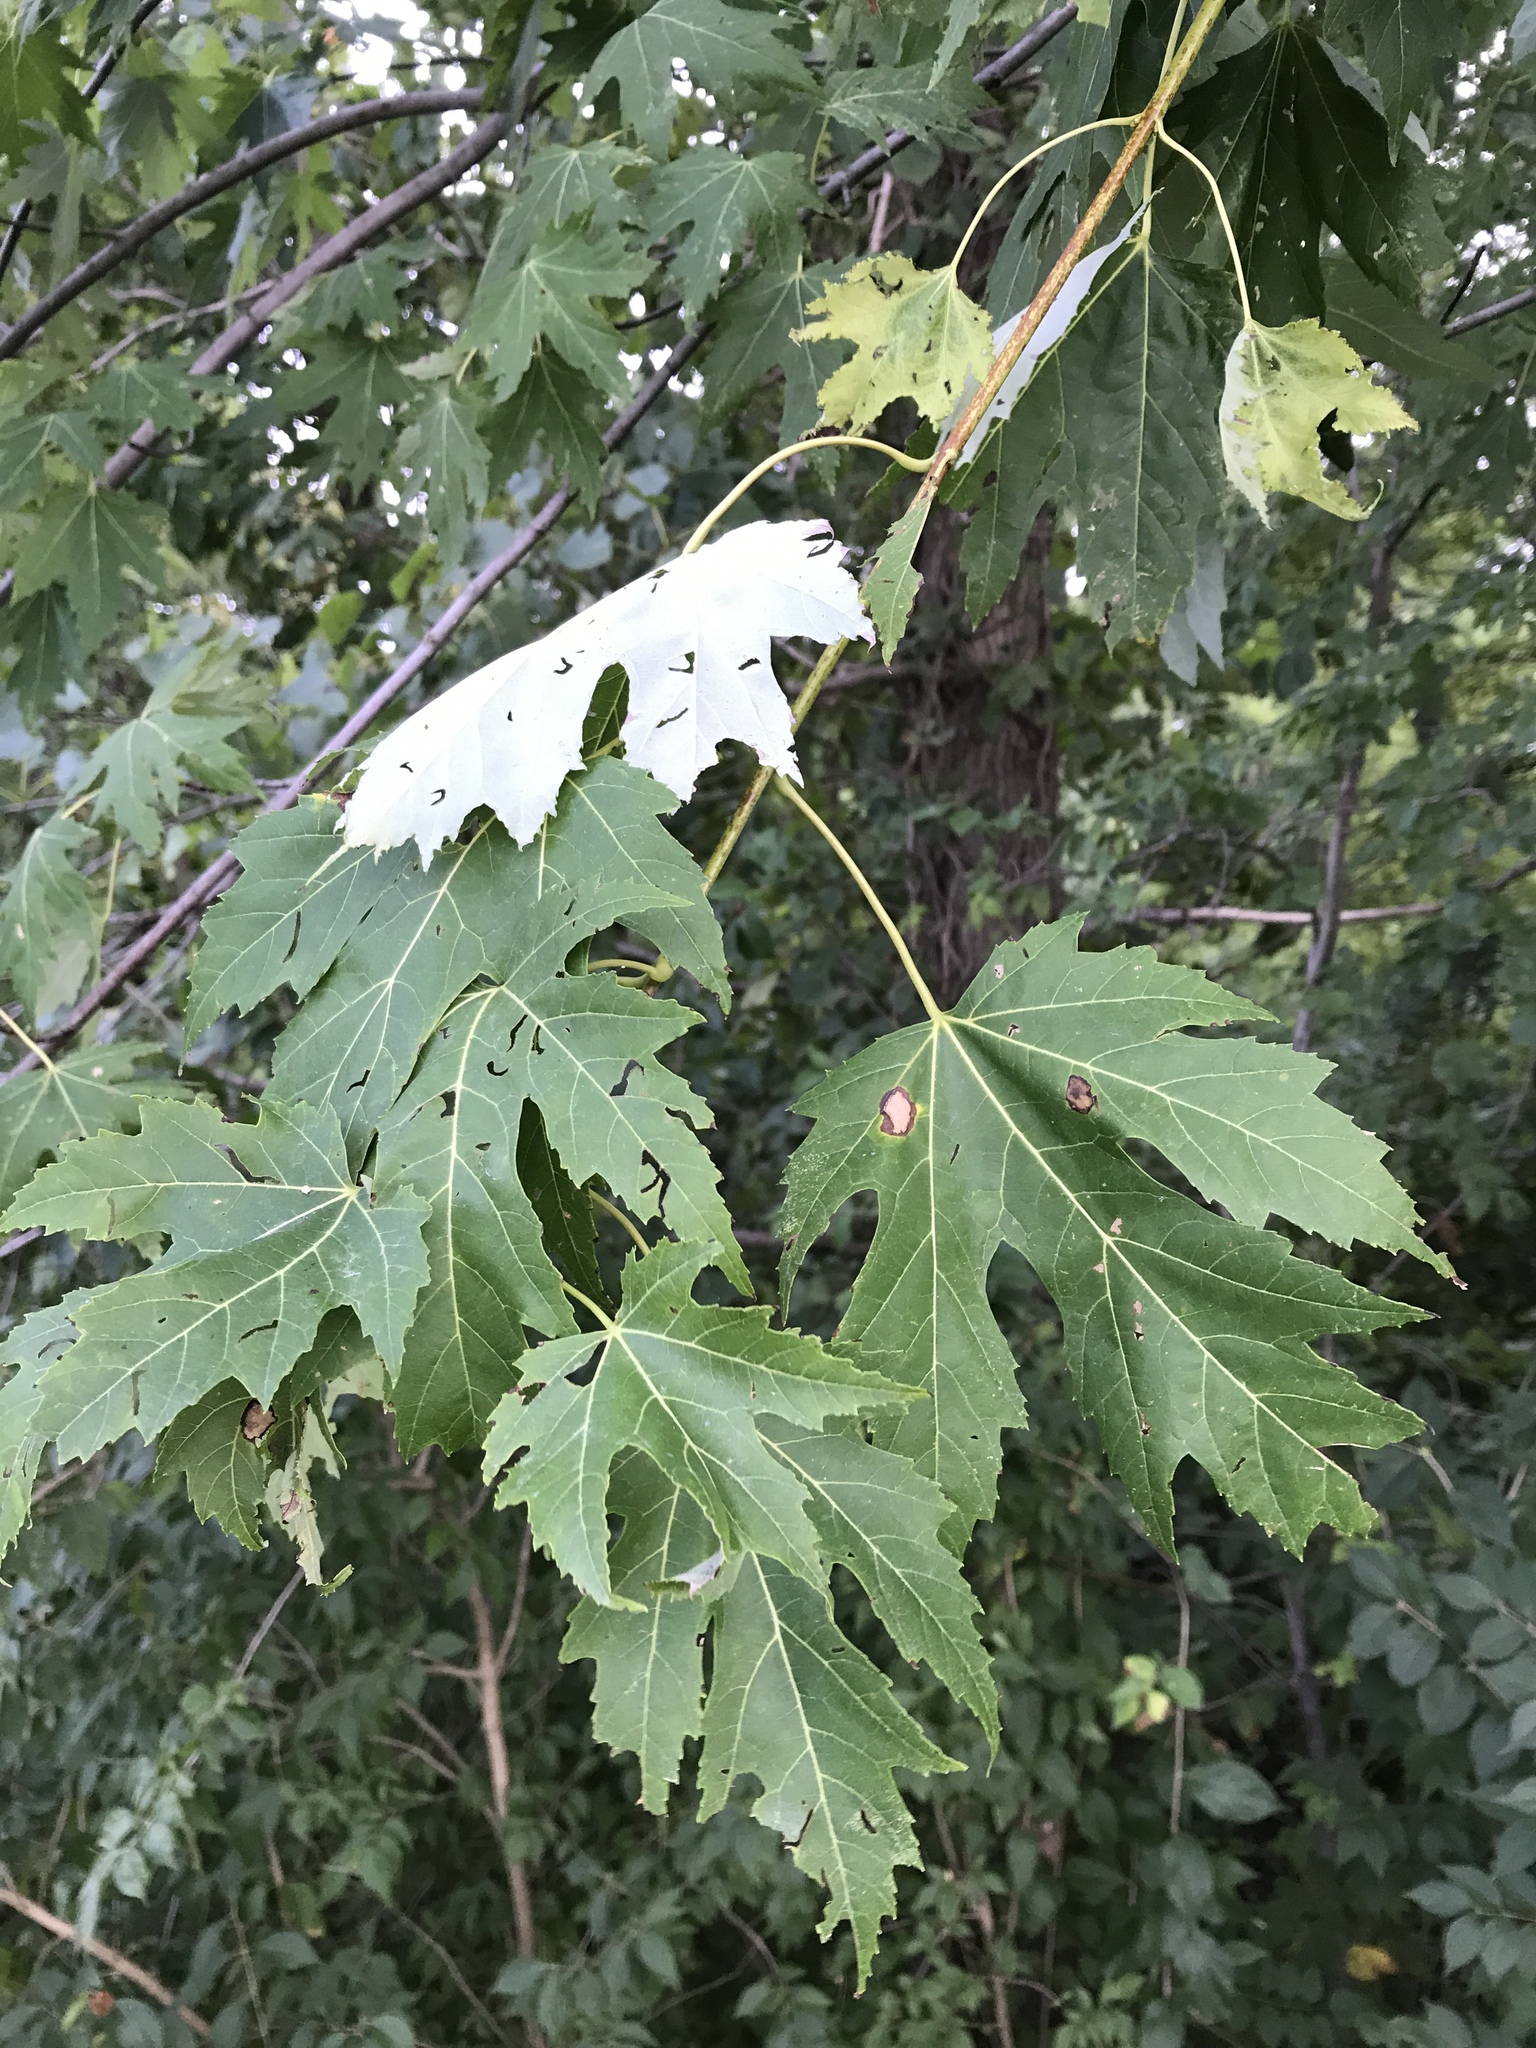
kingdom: Plantae
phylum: Tracheophyta
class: Magnoliopsida
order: Sapindales
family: Sapindaceae
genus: Acer
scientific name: Acer saccharinum
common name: Silver maple
